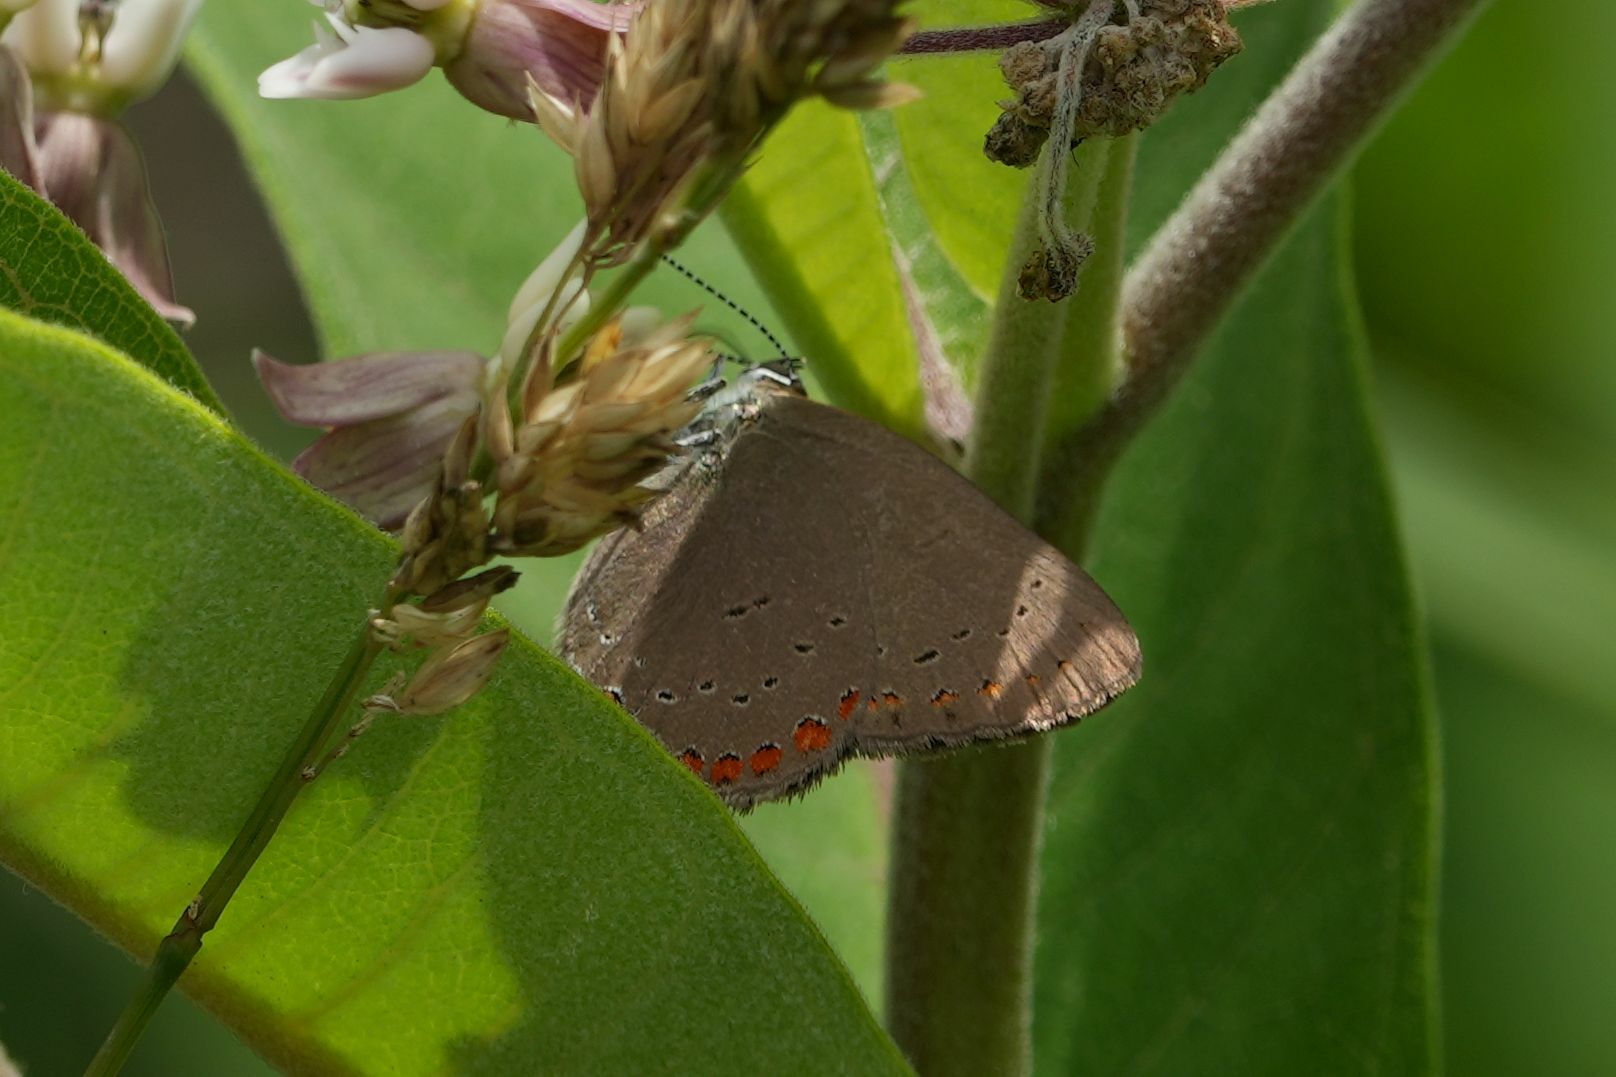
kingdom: Animalia
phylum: Arthropoda
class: Insecta
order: Lepidoptera
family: Lycaenidae
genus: Harkenclenus
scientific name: Harkenclenus titus
